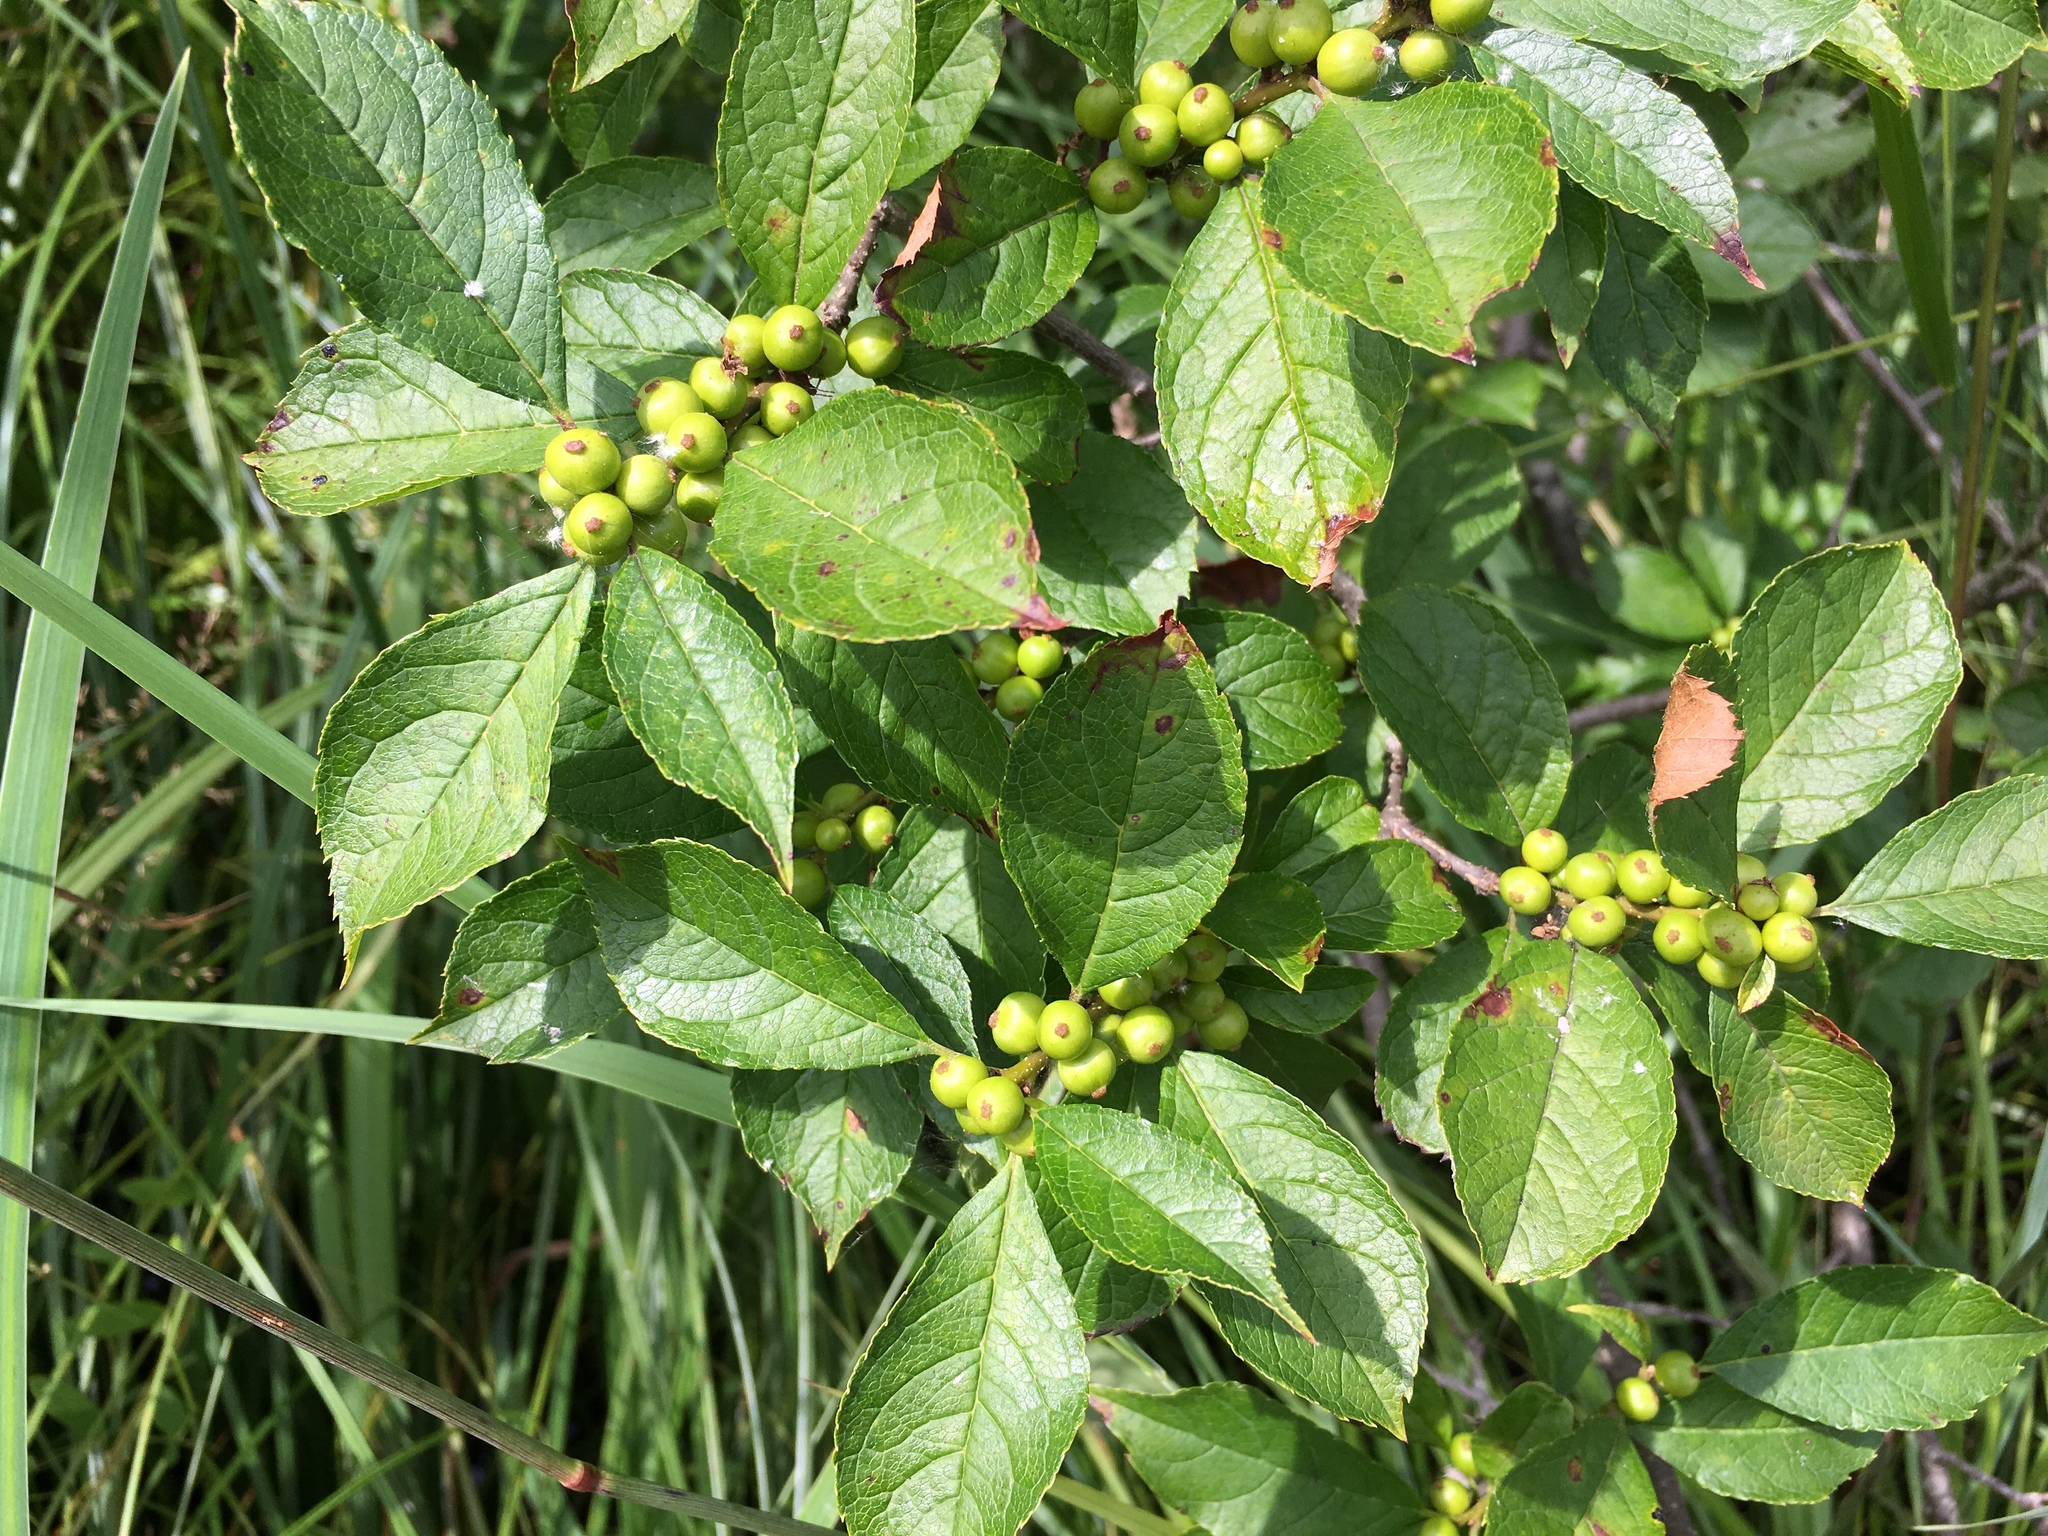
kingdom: Plantae
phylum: Tracheophyta
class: Magnoliopsida
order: Aquifoliales
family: Aquifoliaceae
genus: Ilex
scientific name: Ilex verticillata
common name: Virginia winterberry
